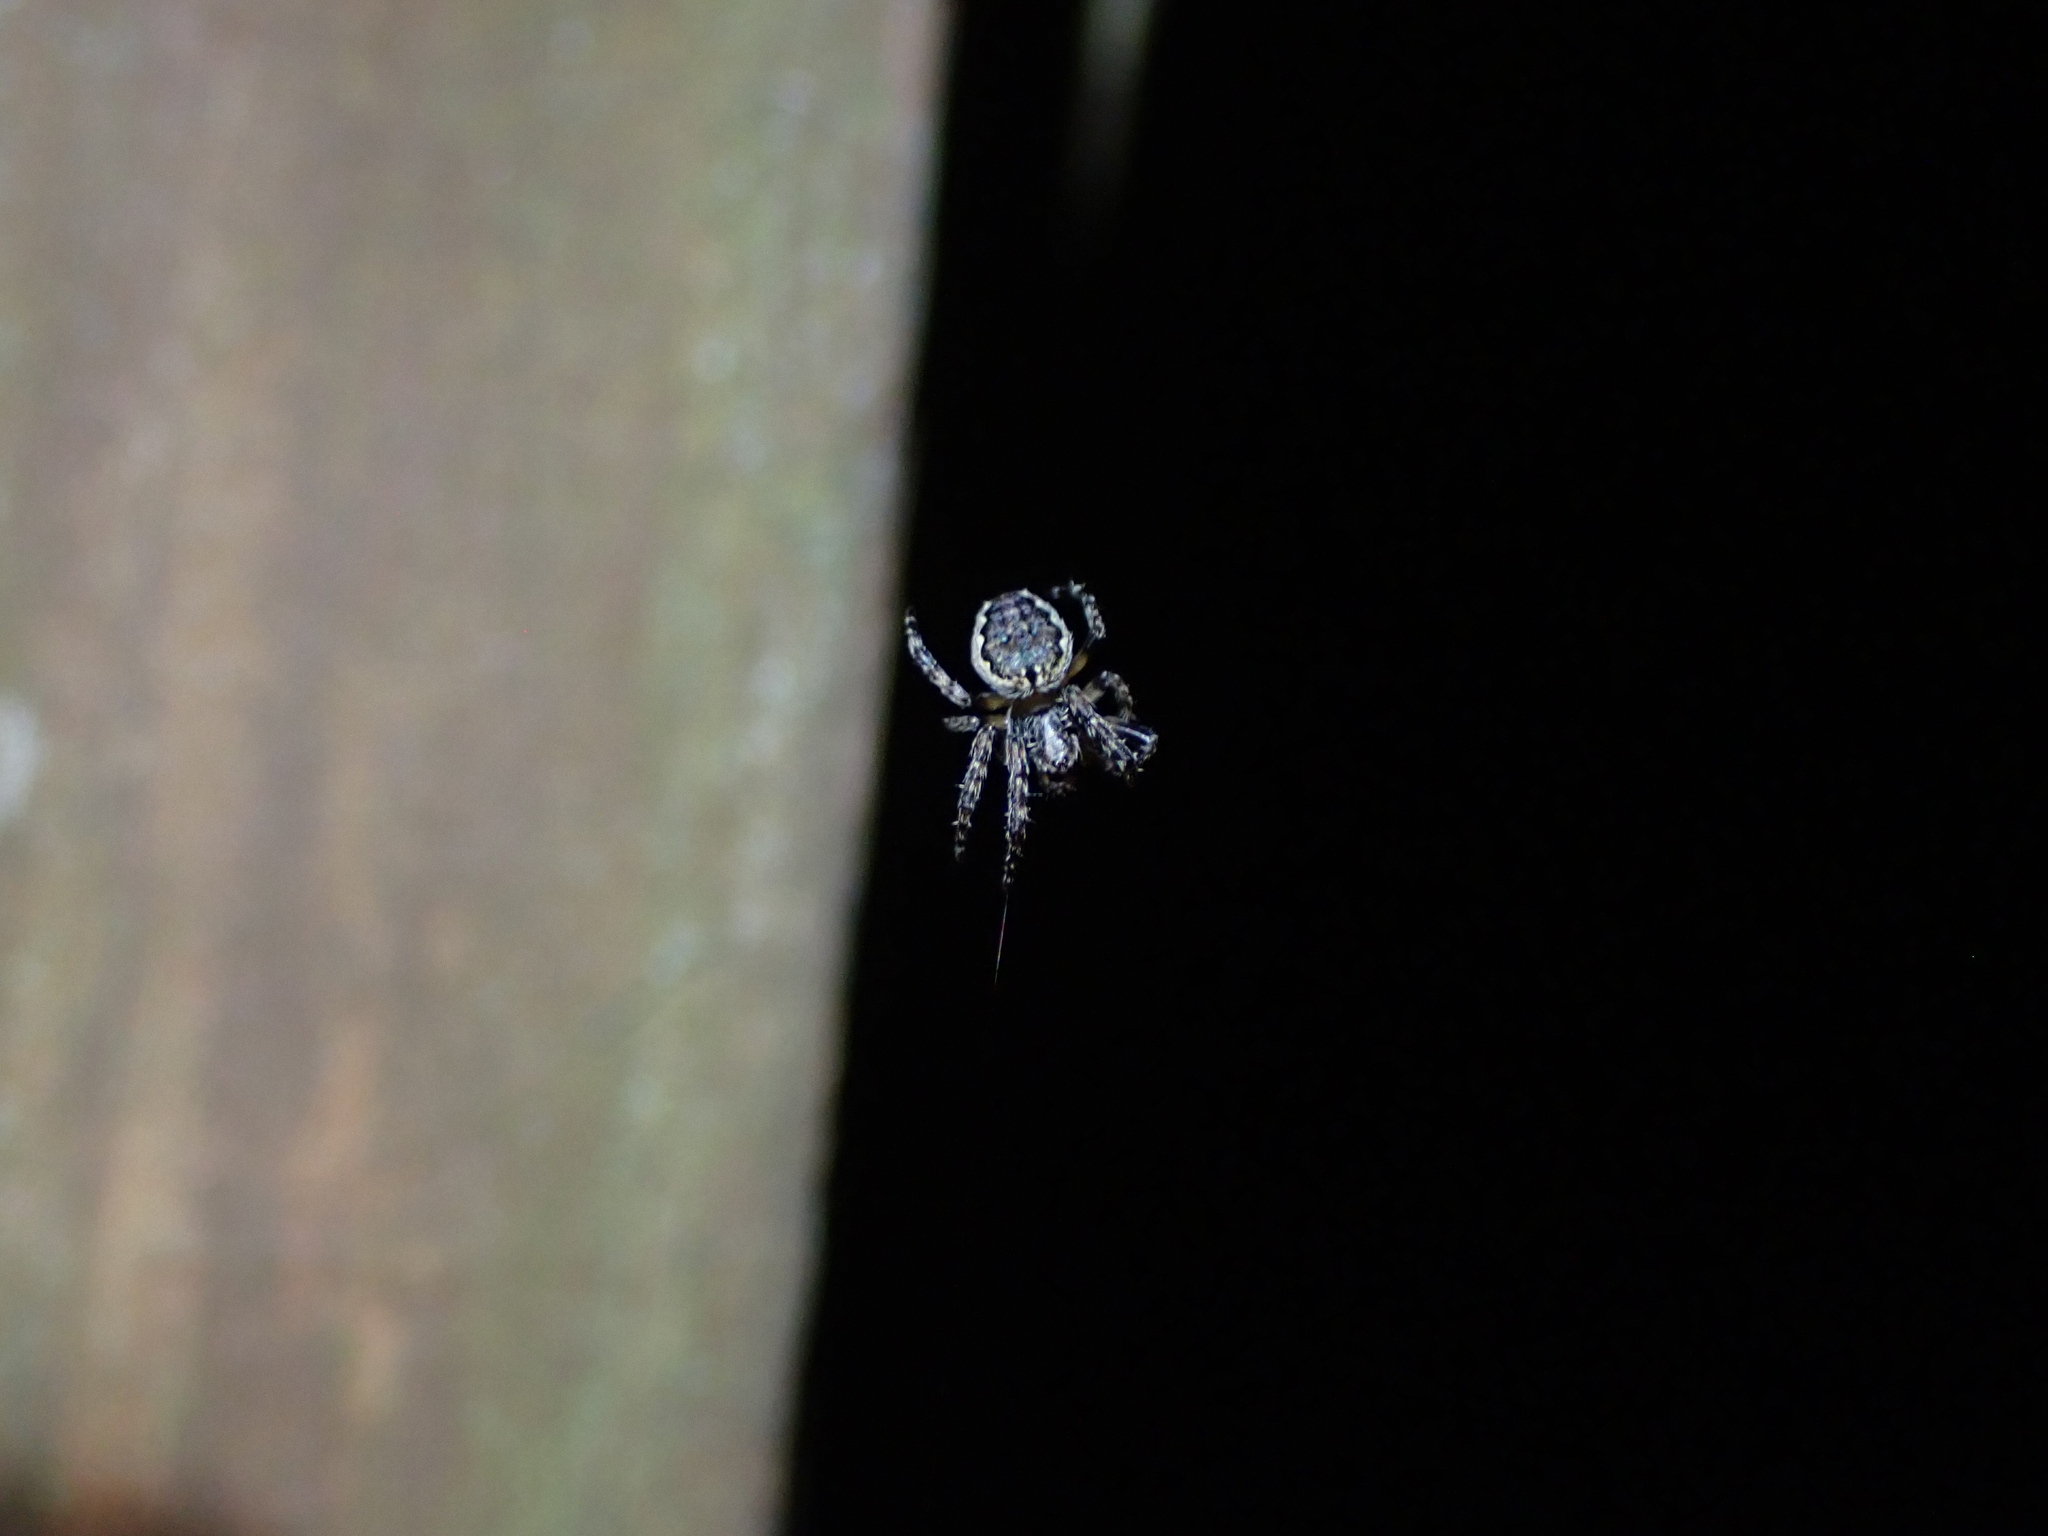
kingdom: Animalia
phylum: Arthropoda
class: Arachnida
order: Araneae
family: Araneidae
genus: Nuctenea
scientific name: Nuctenea umbratica
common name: Toad spider
